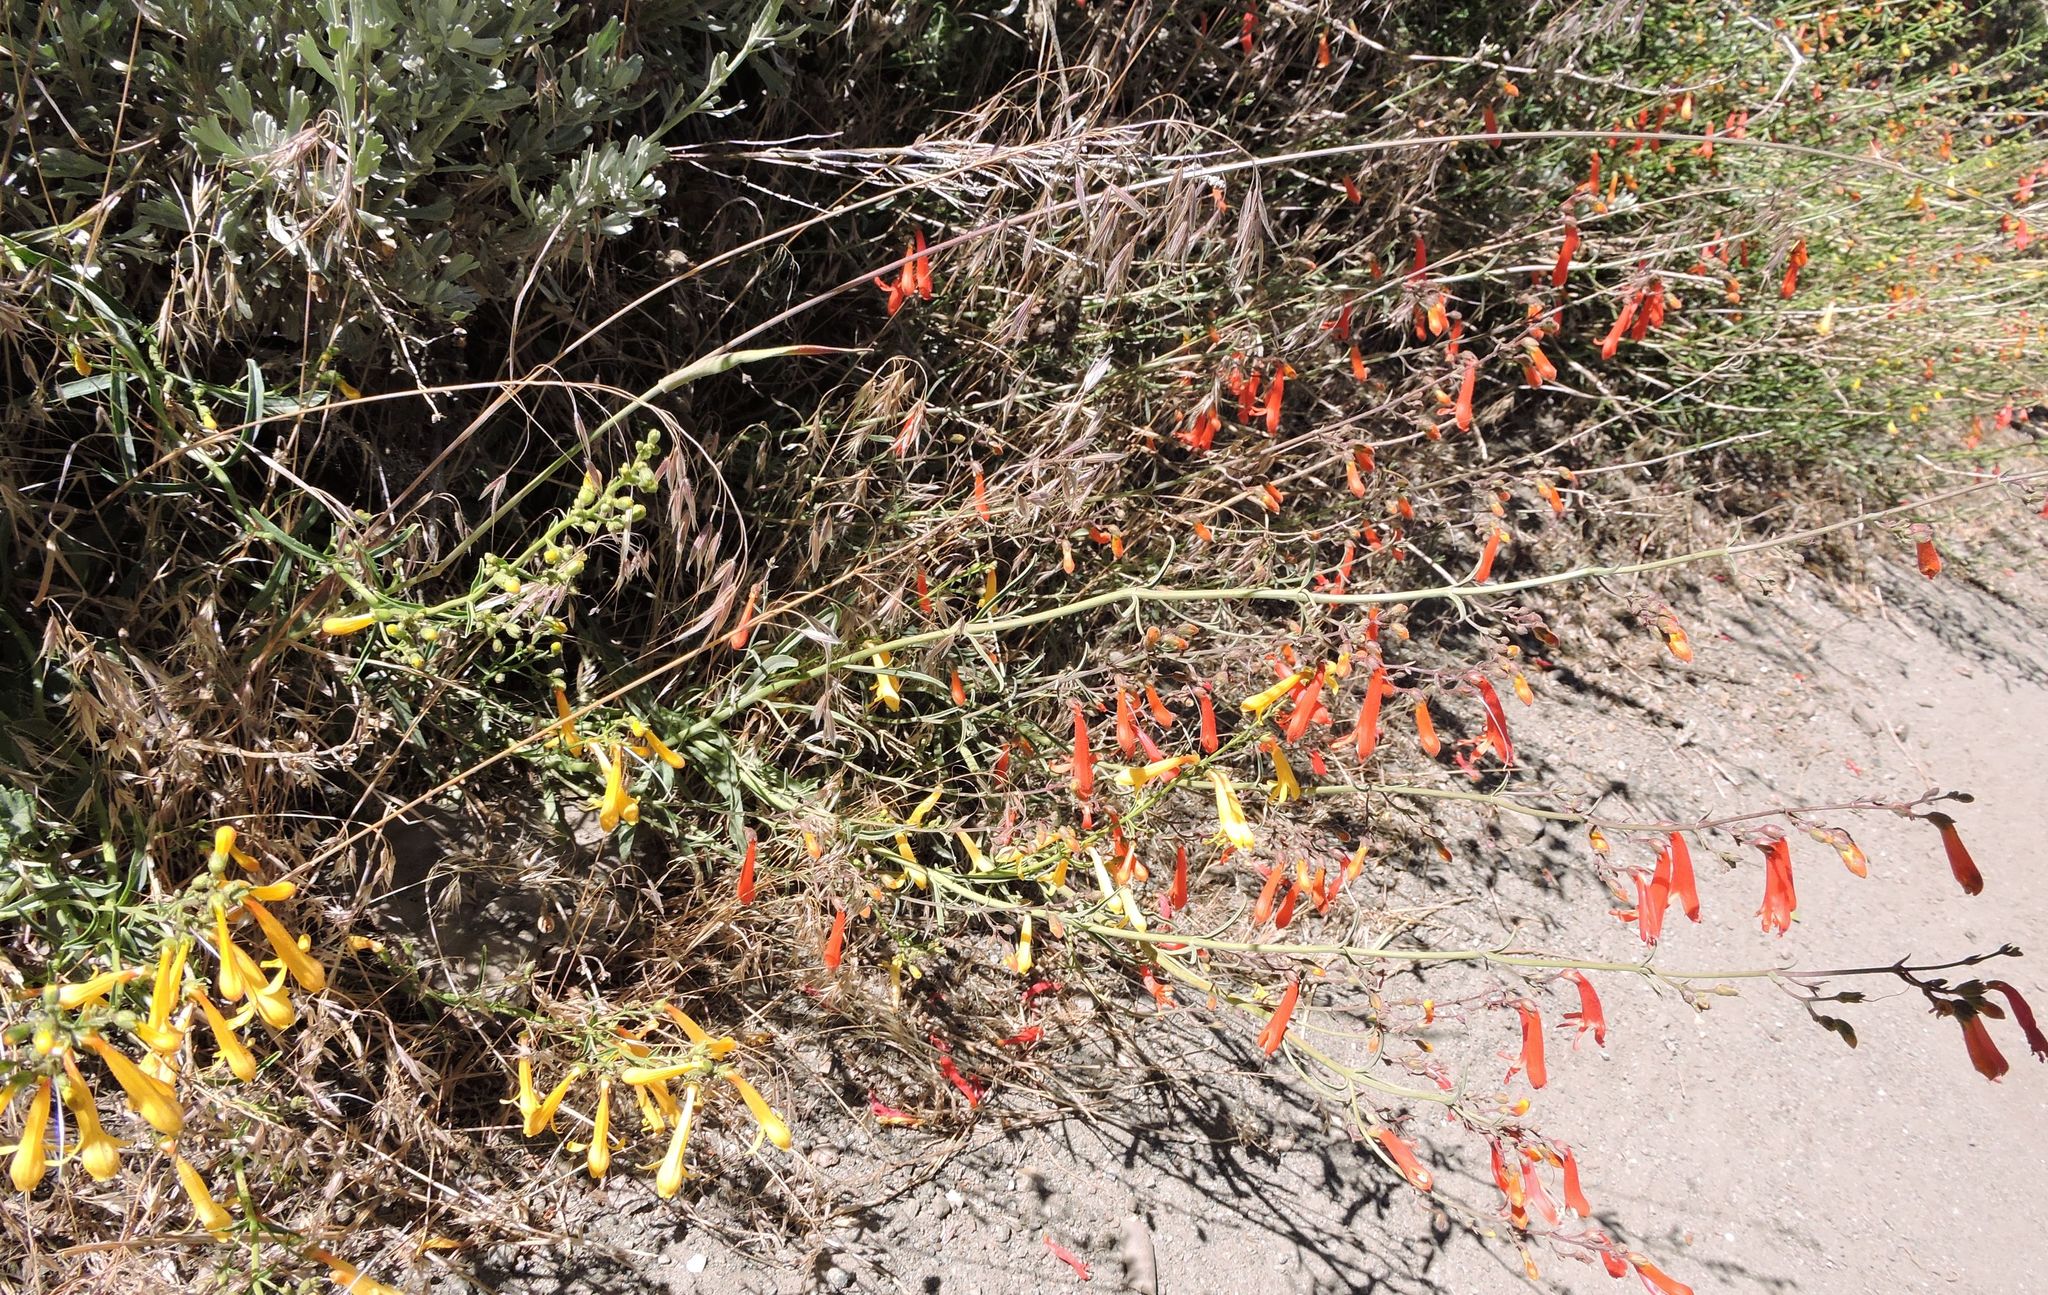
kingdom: Plantae
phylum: Tracheophyta
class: Magnoliopsida
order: Lamiales
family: Plantaginaceae
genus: Penstemon
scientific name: Penstemon rostriflorus
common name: Bridges's penstemon
